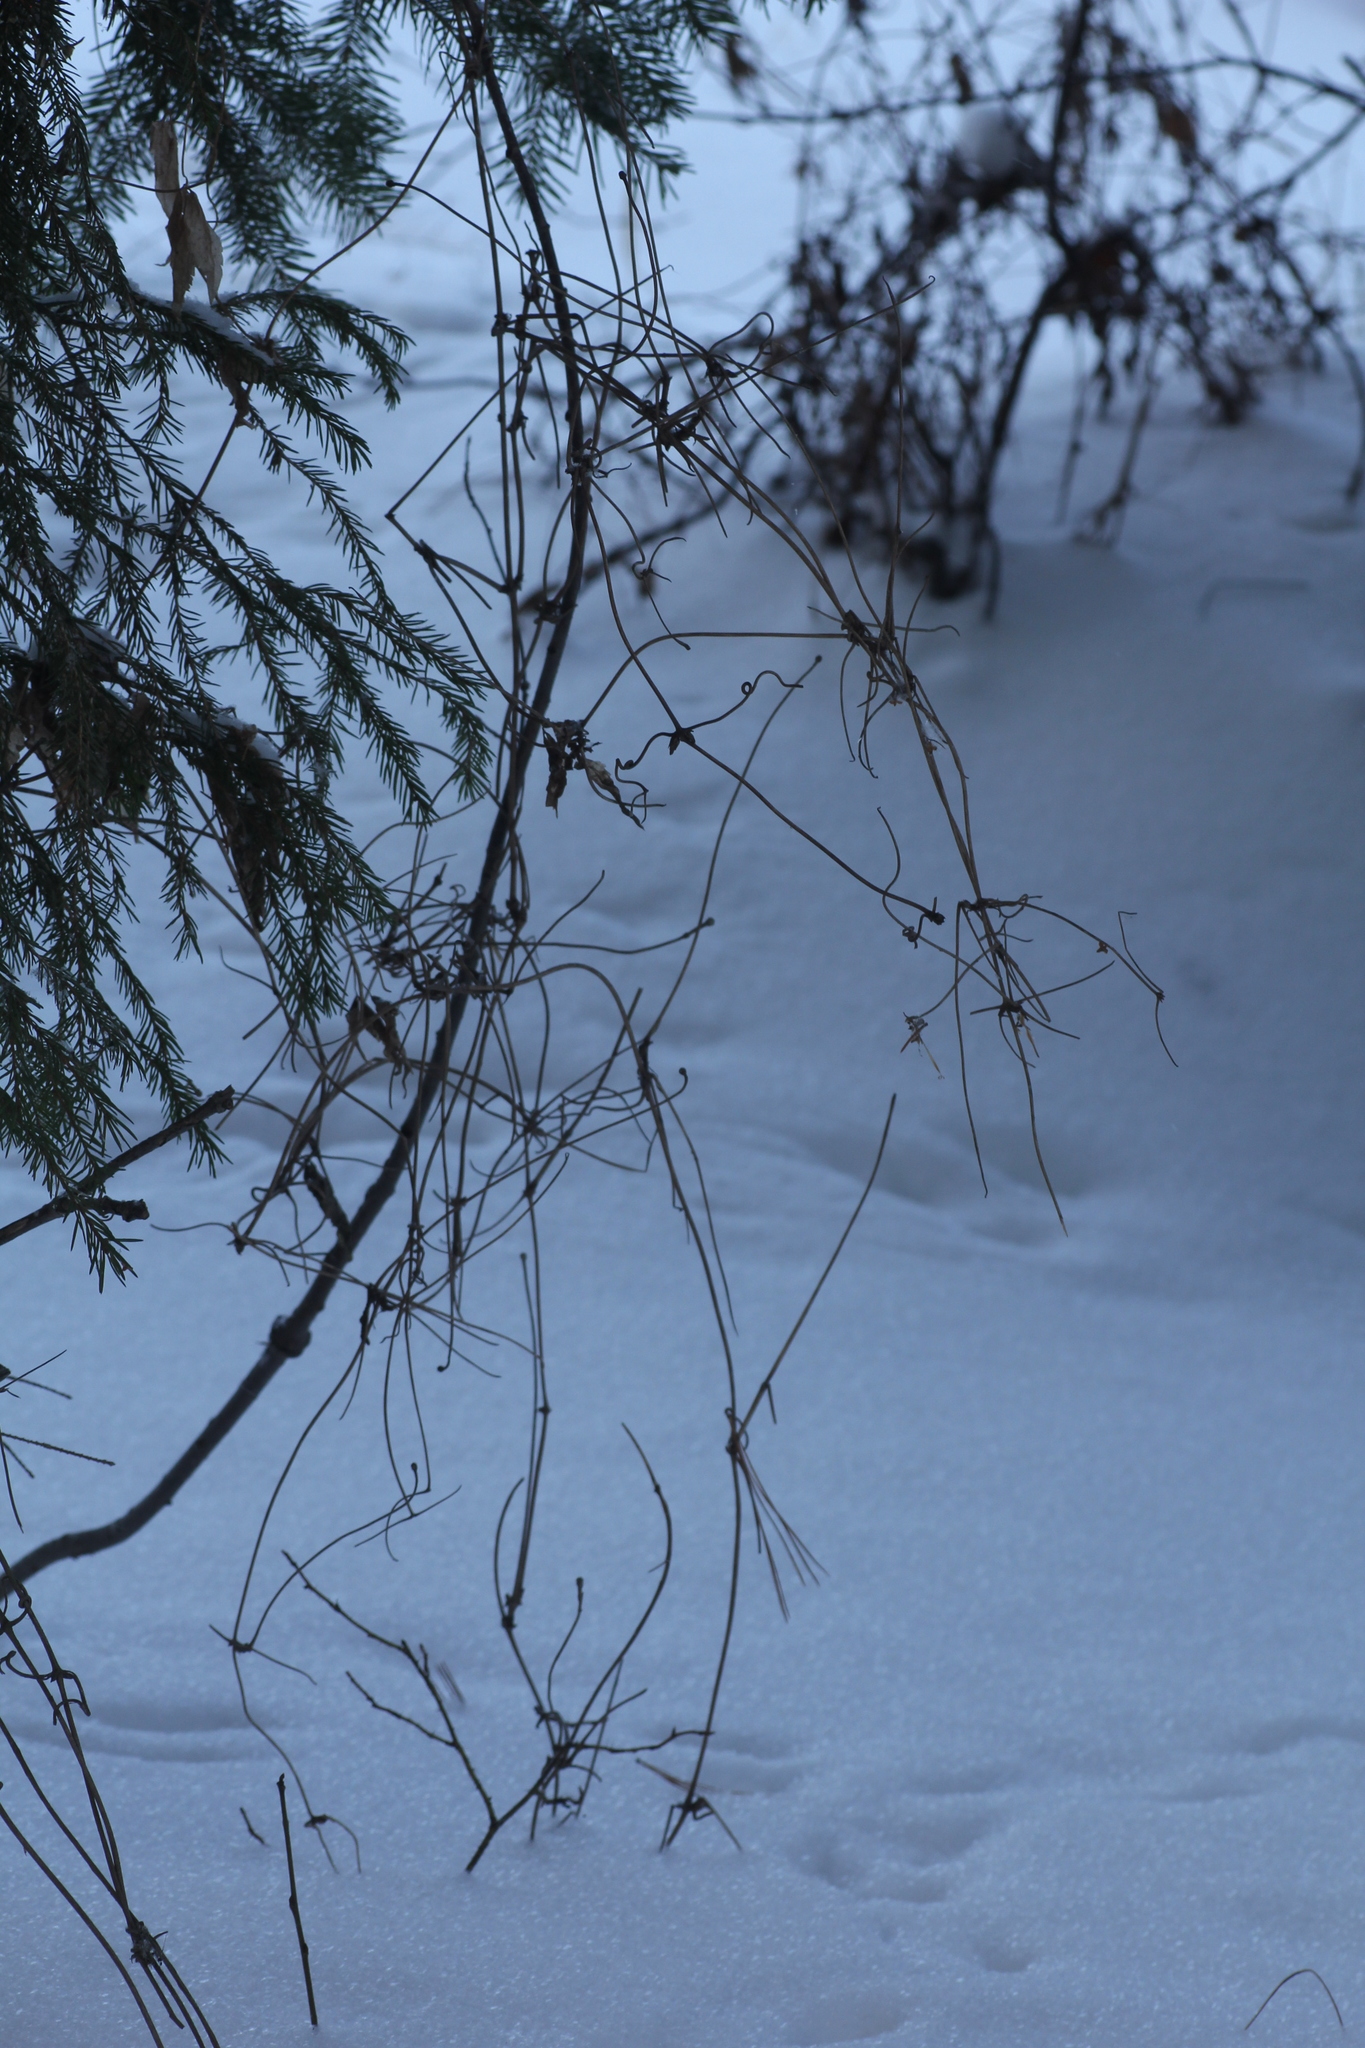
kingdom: Plantae
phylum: Tracheophyta
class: Magnoliopsida
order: Ranunculales
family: Ranunculaceae
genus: Clematis
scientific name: Clematis sibirica
